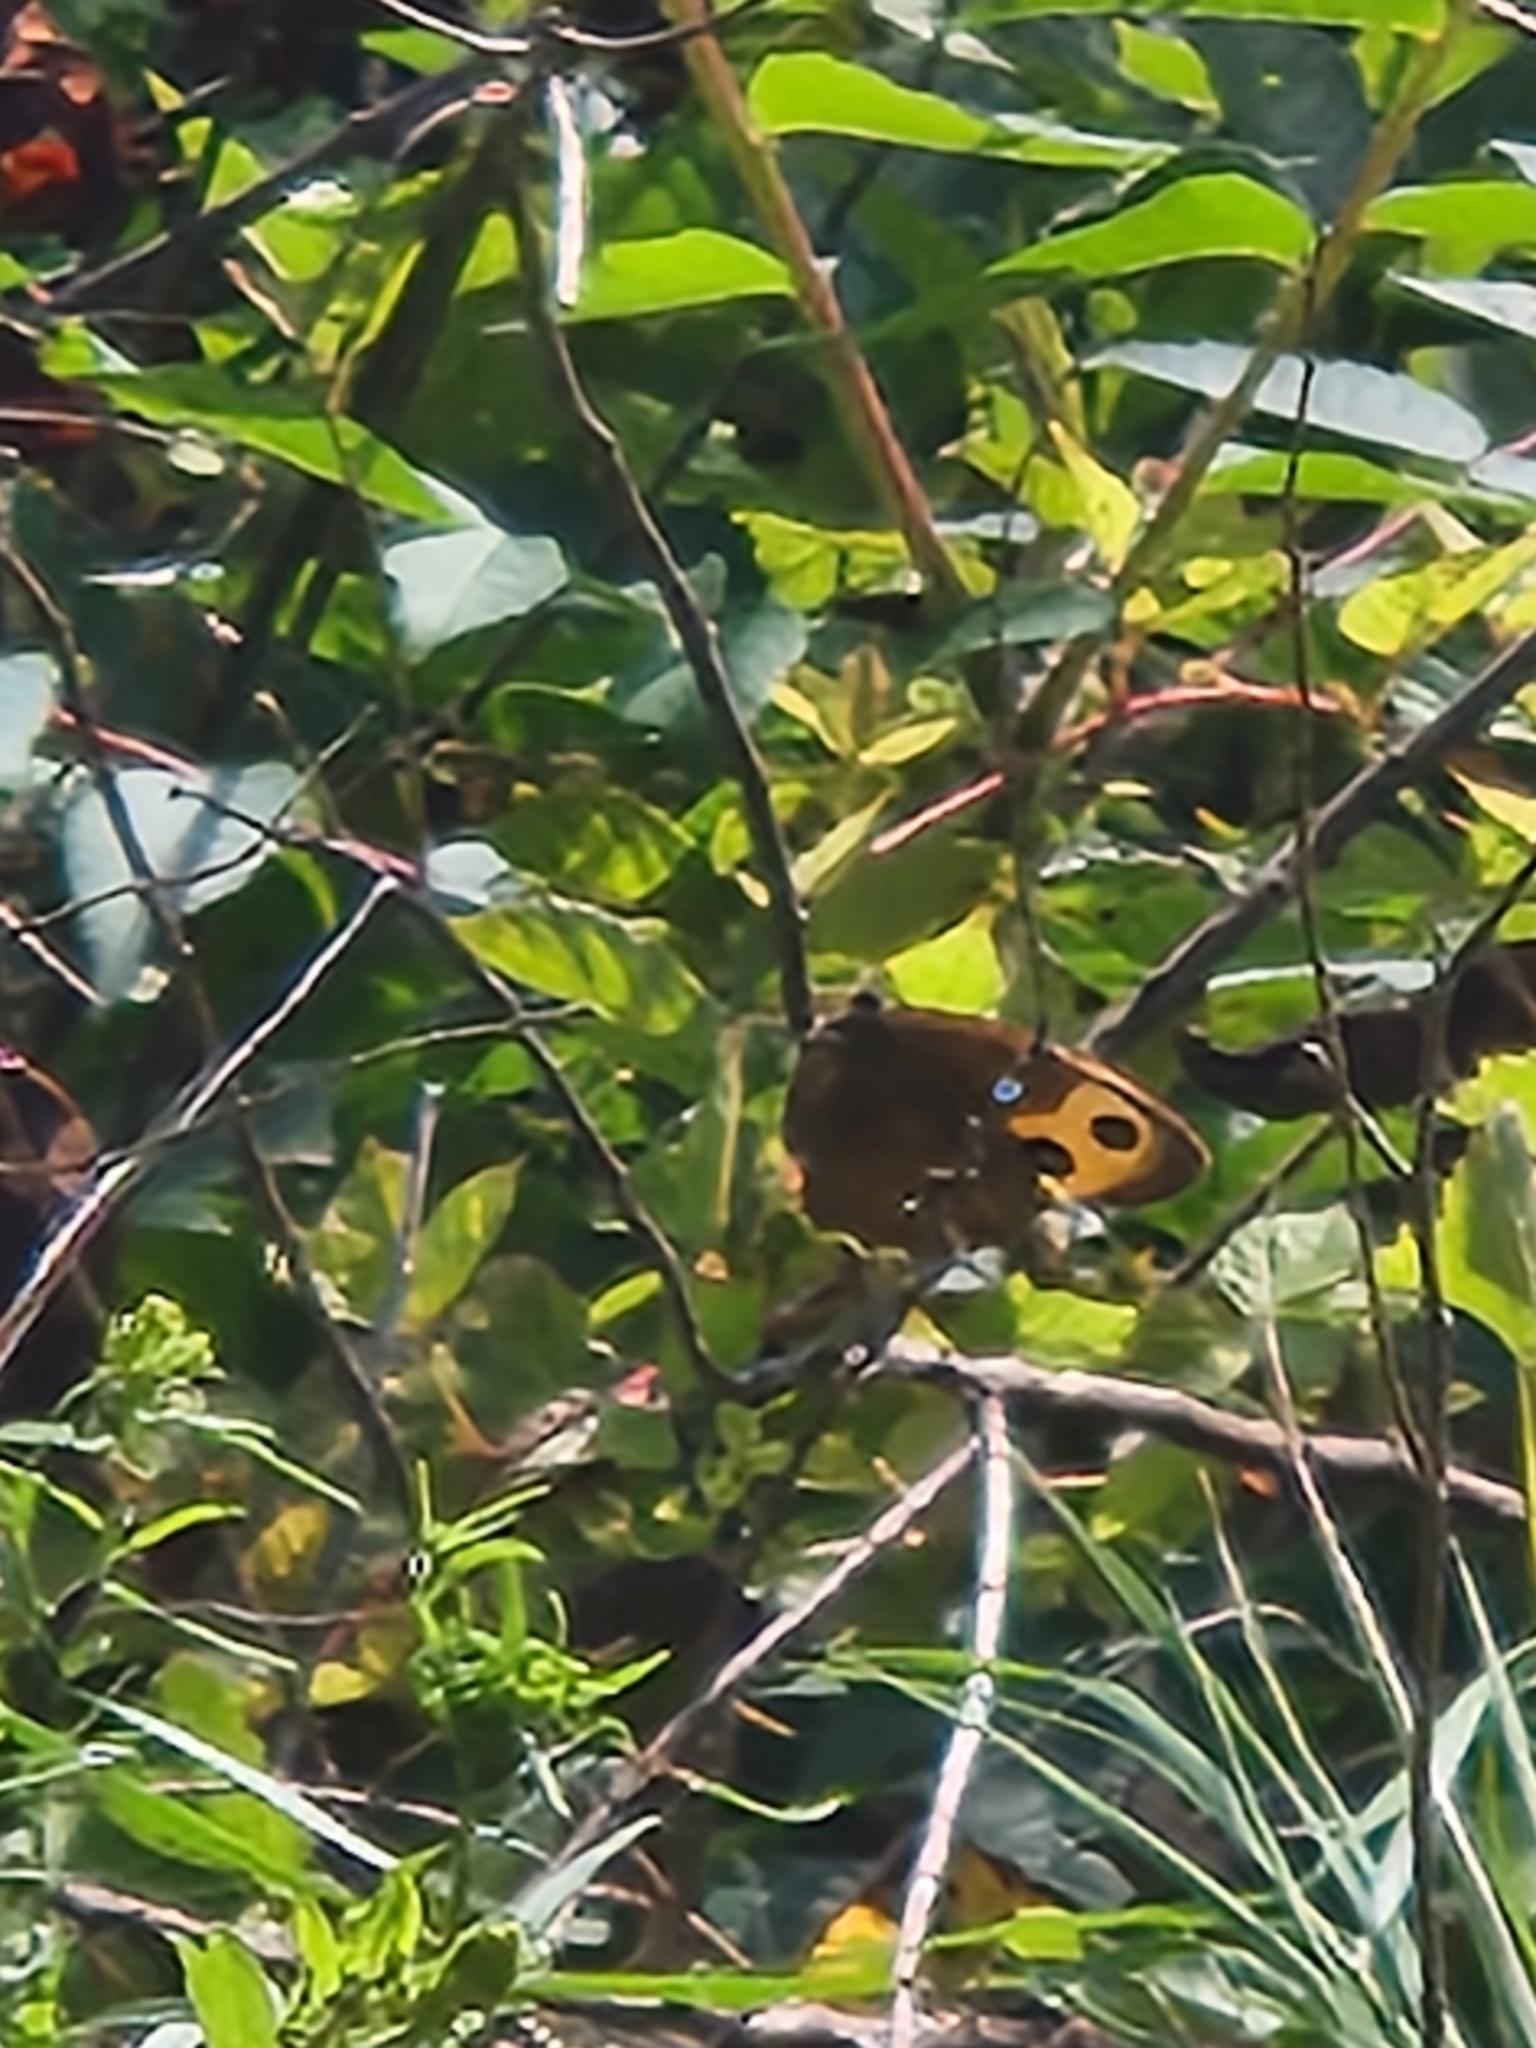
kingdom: Animalia
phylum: Arthropoda
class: Insecta
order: Lepidoptera
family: Nymphalidae
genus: Cercyonis
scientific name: Cercyonis pegala
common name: Common wood-nymph
